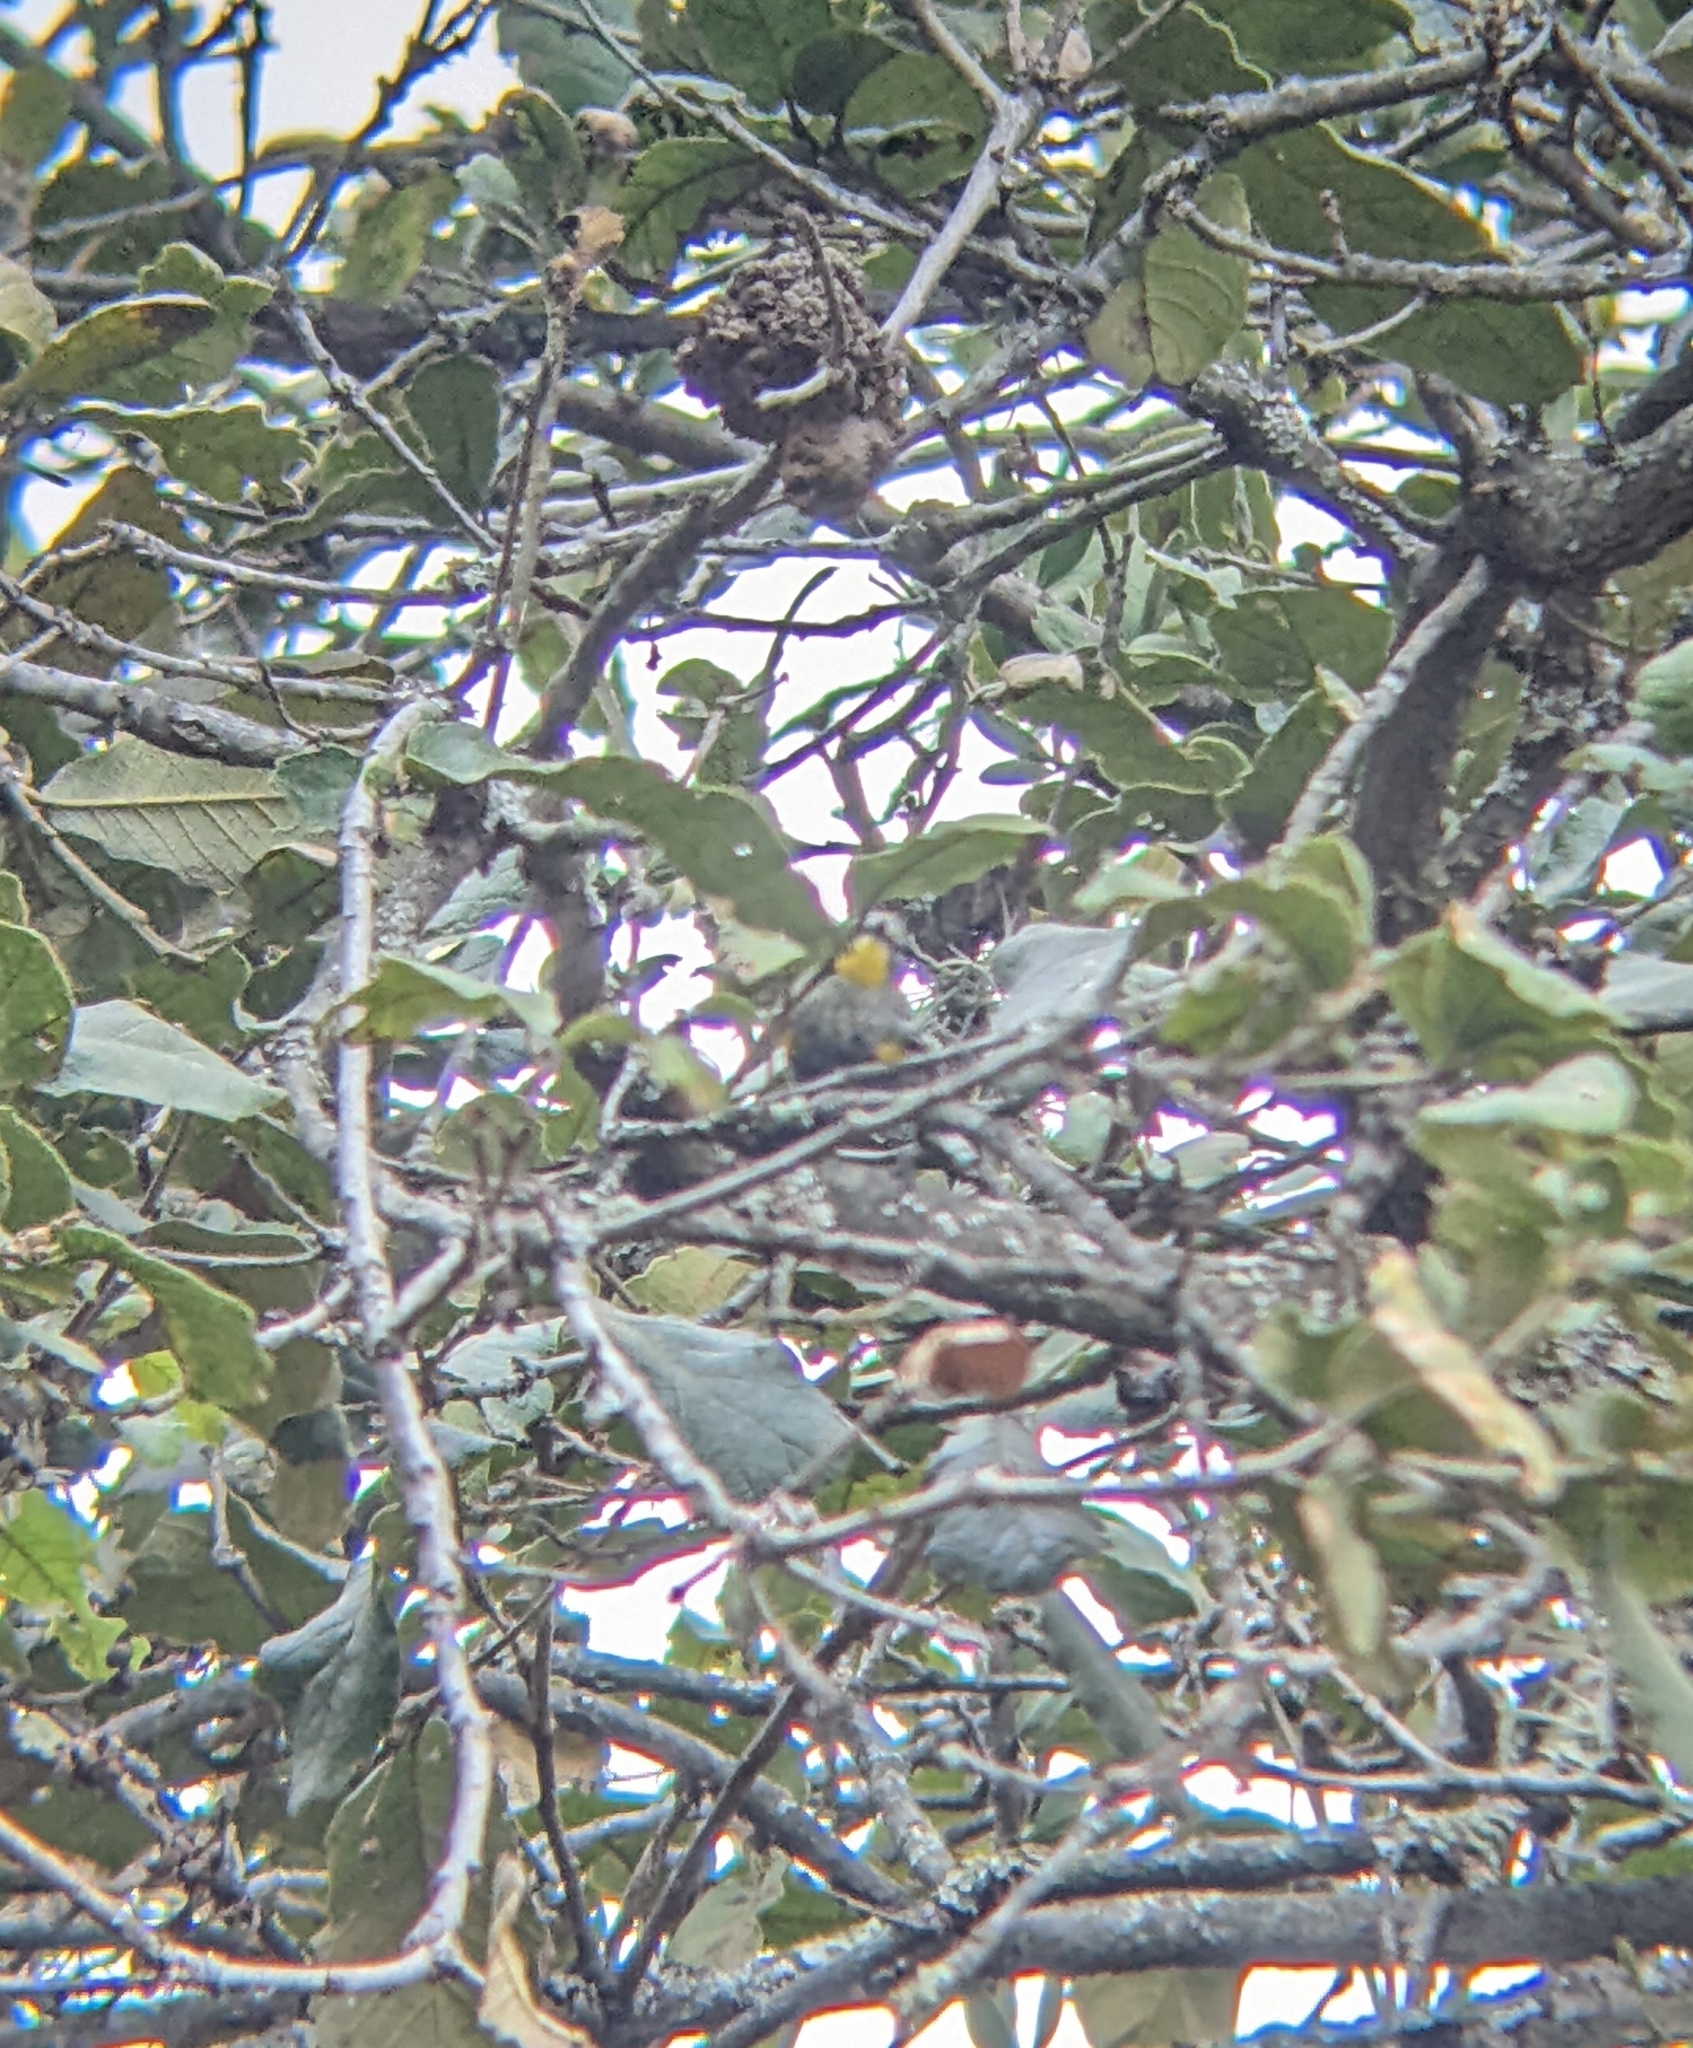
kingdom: Animalia
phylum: Chordata
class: Aves
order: Passeriformes
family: Parulidae
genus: Setophaga
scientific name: Setophaga coronata
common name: Myrtle warbler
